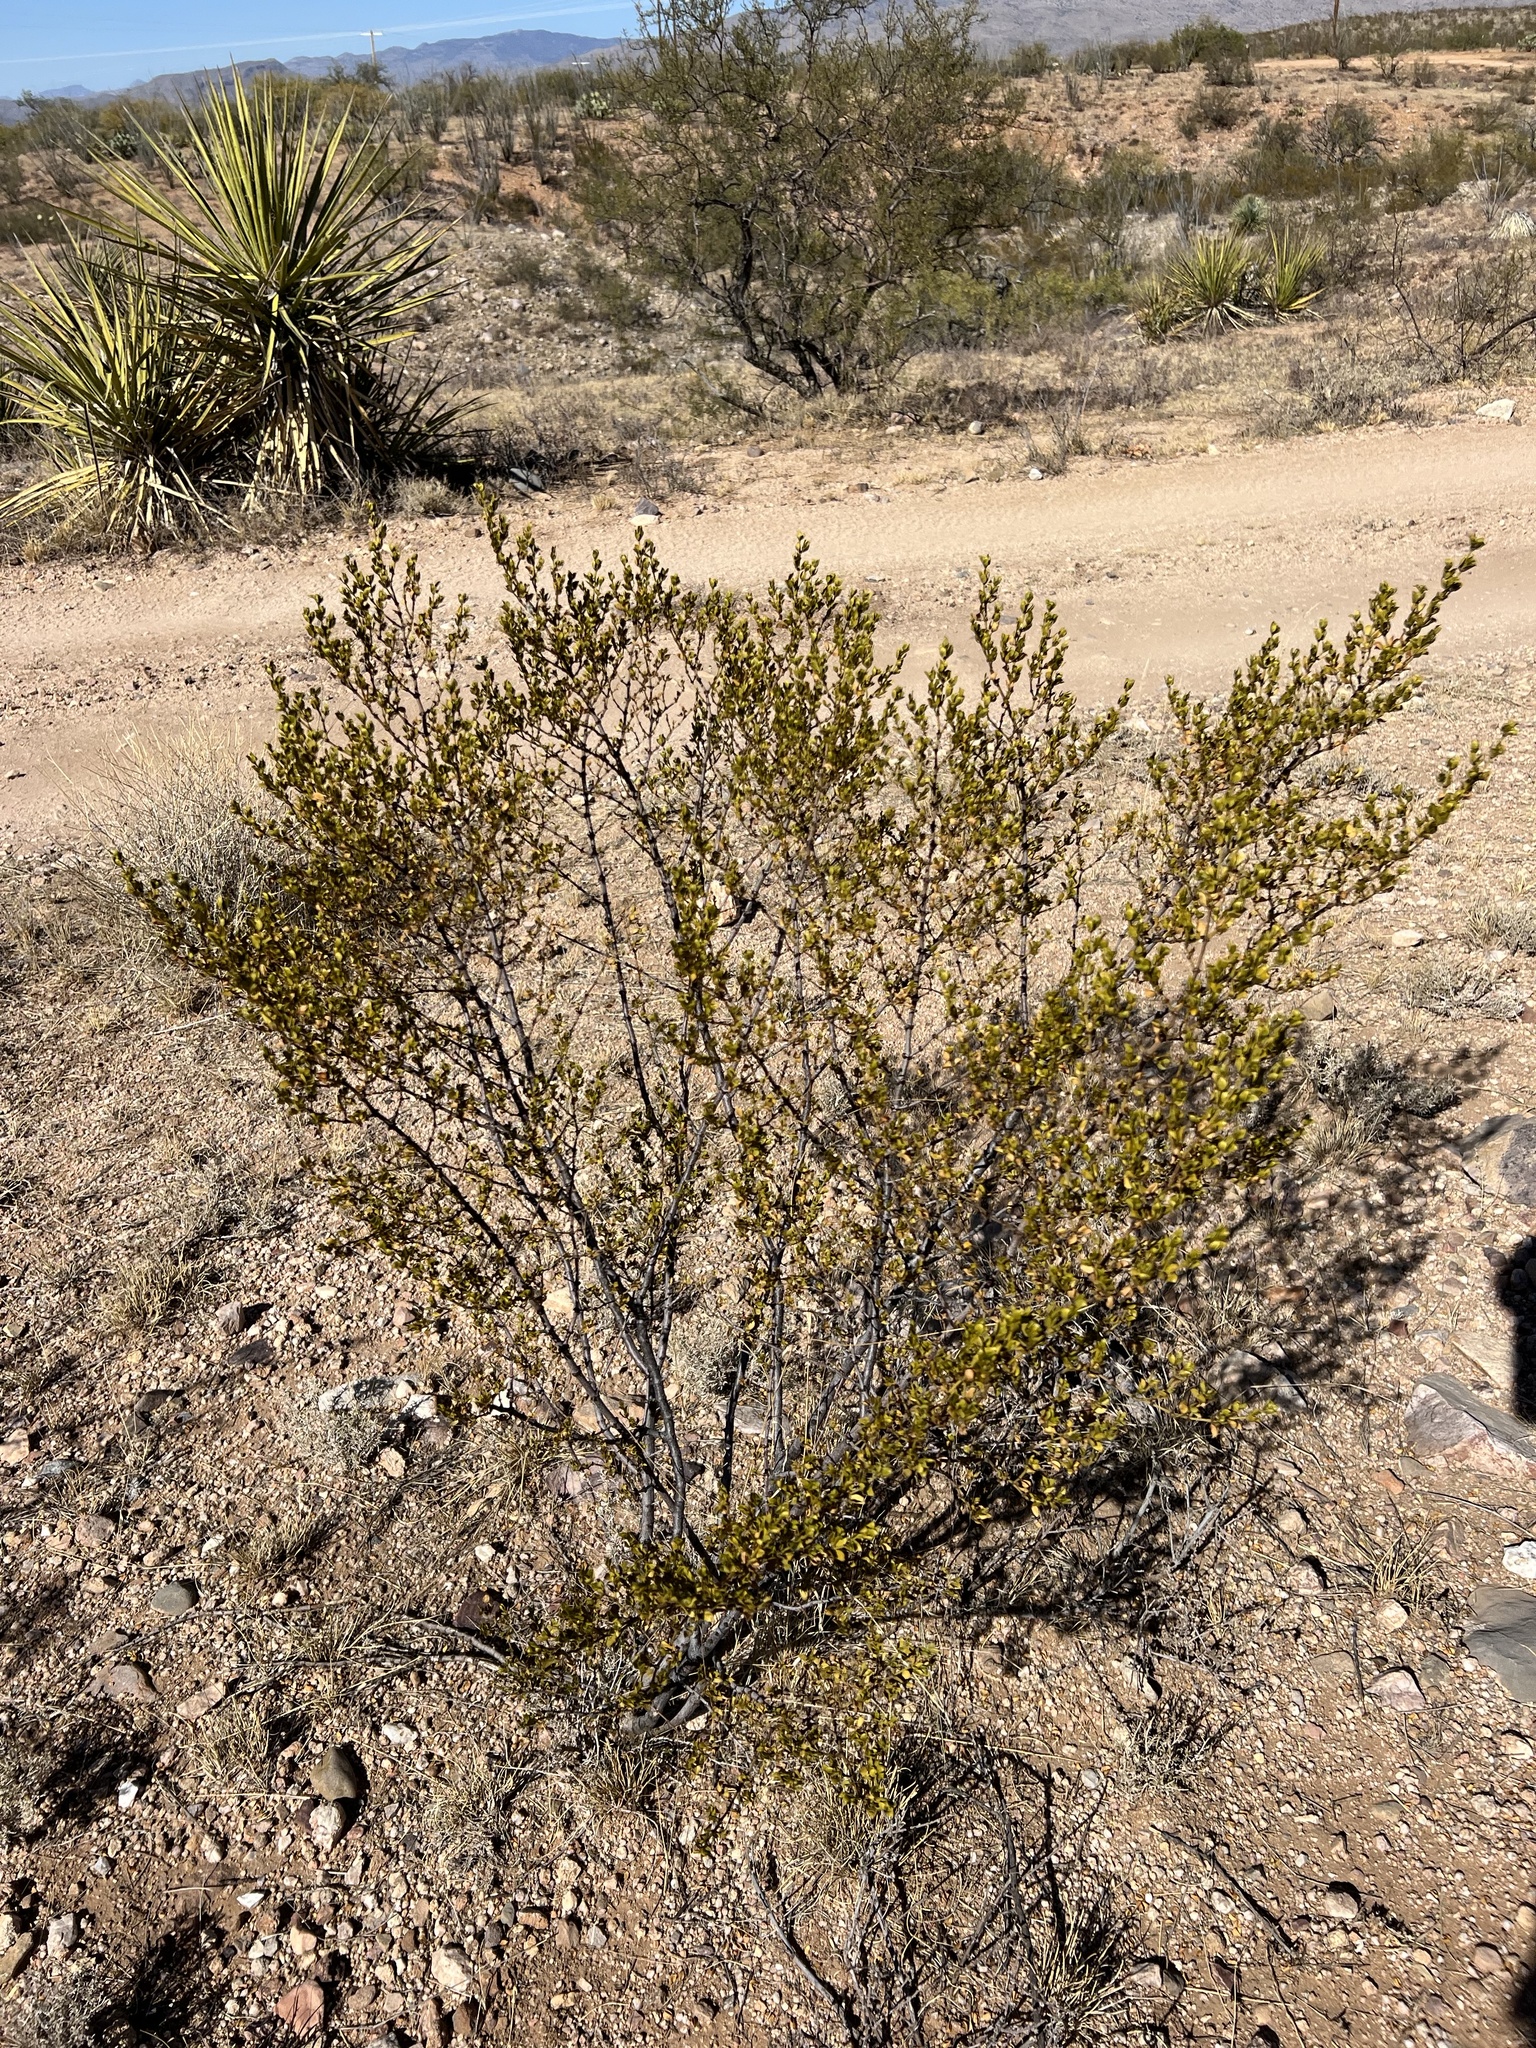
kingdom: Plantae
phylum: Tracheophyta
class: Magnoliopsida
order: Zygophyllales
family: Zygophyllaceae
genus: Larrea
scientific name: Larrea tridentata
